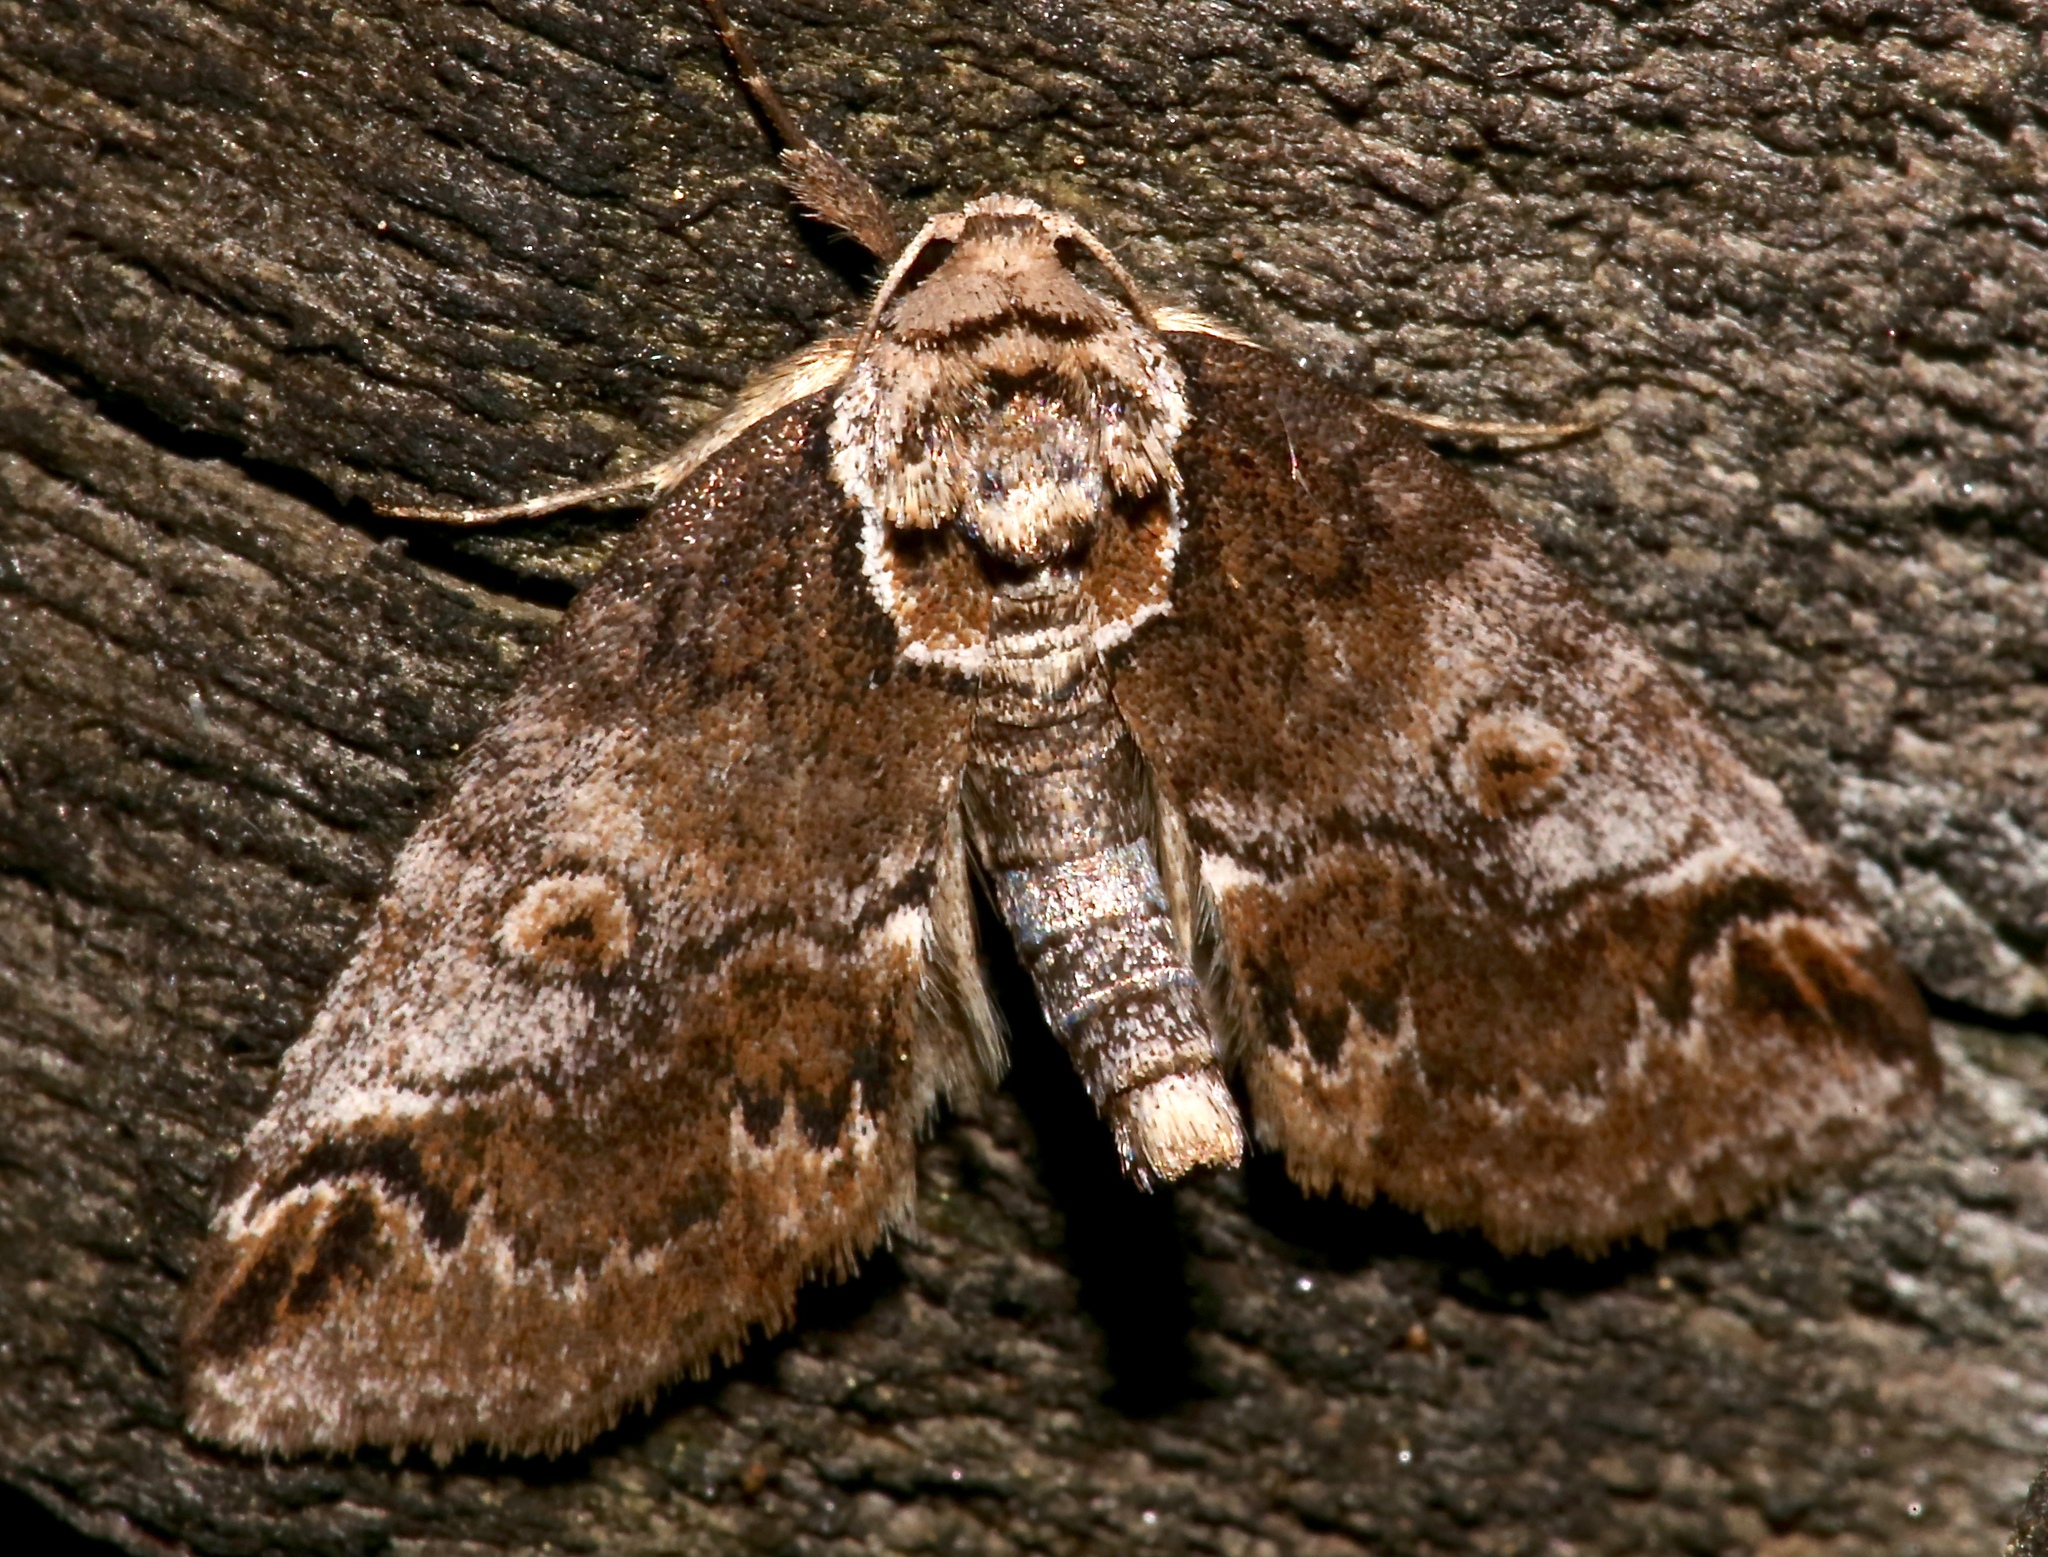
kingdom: Animalia
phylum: Arthropoda
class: Insecta
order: Lepidoptera
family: Nolidae
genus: Baileya
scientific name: Baileya ophthalmica
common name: Eyed baileya moth
